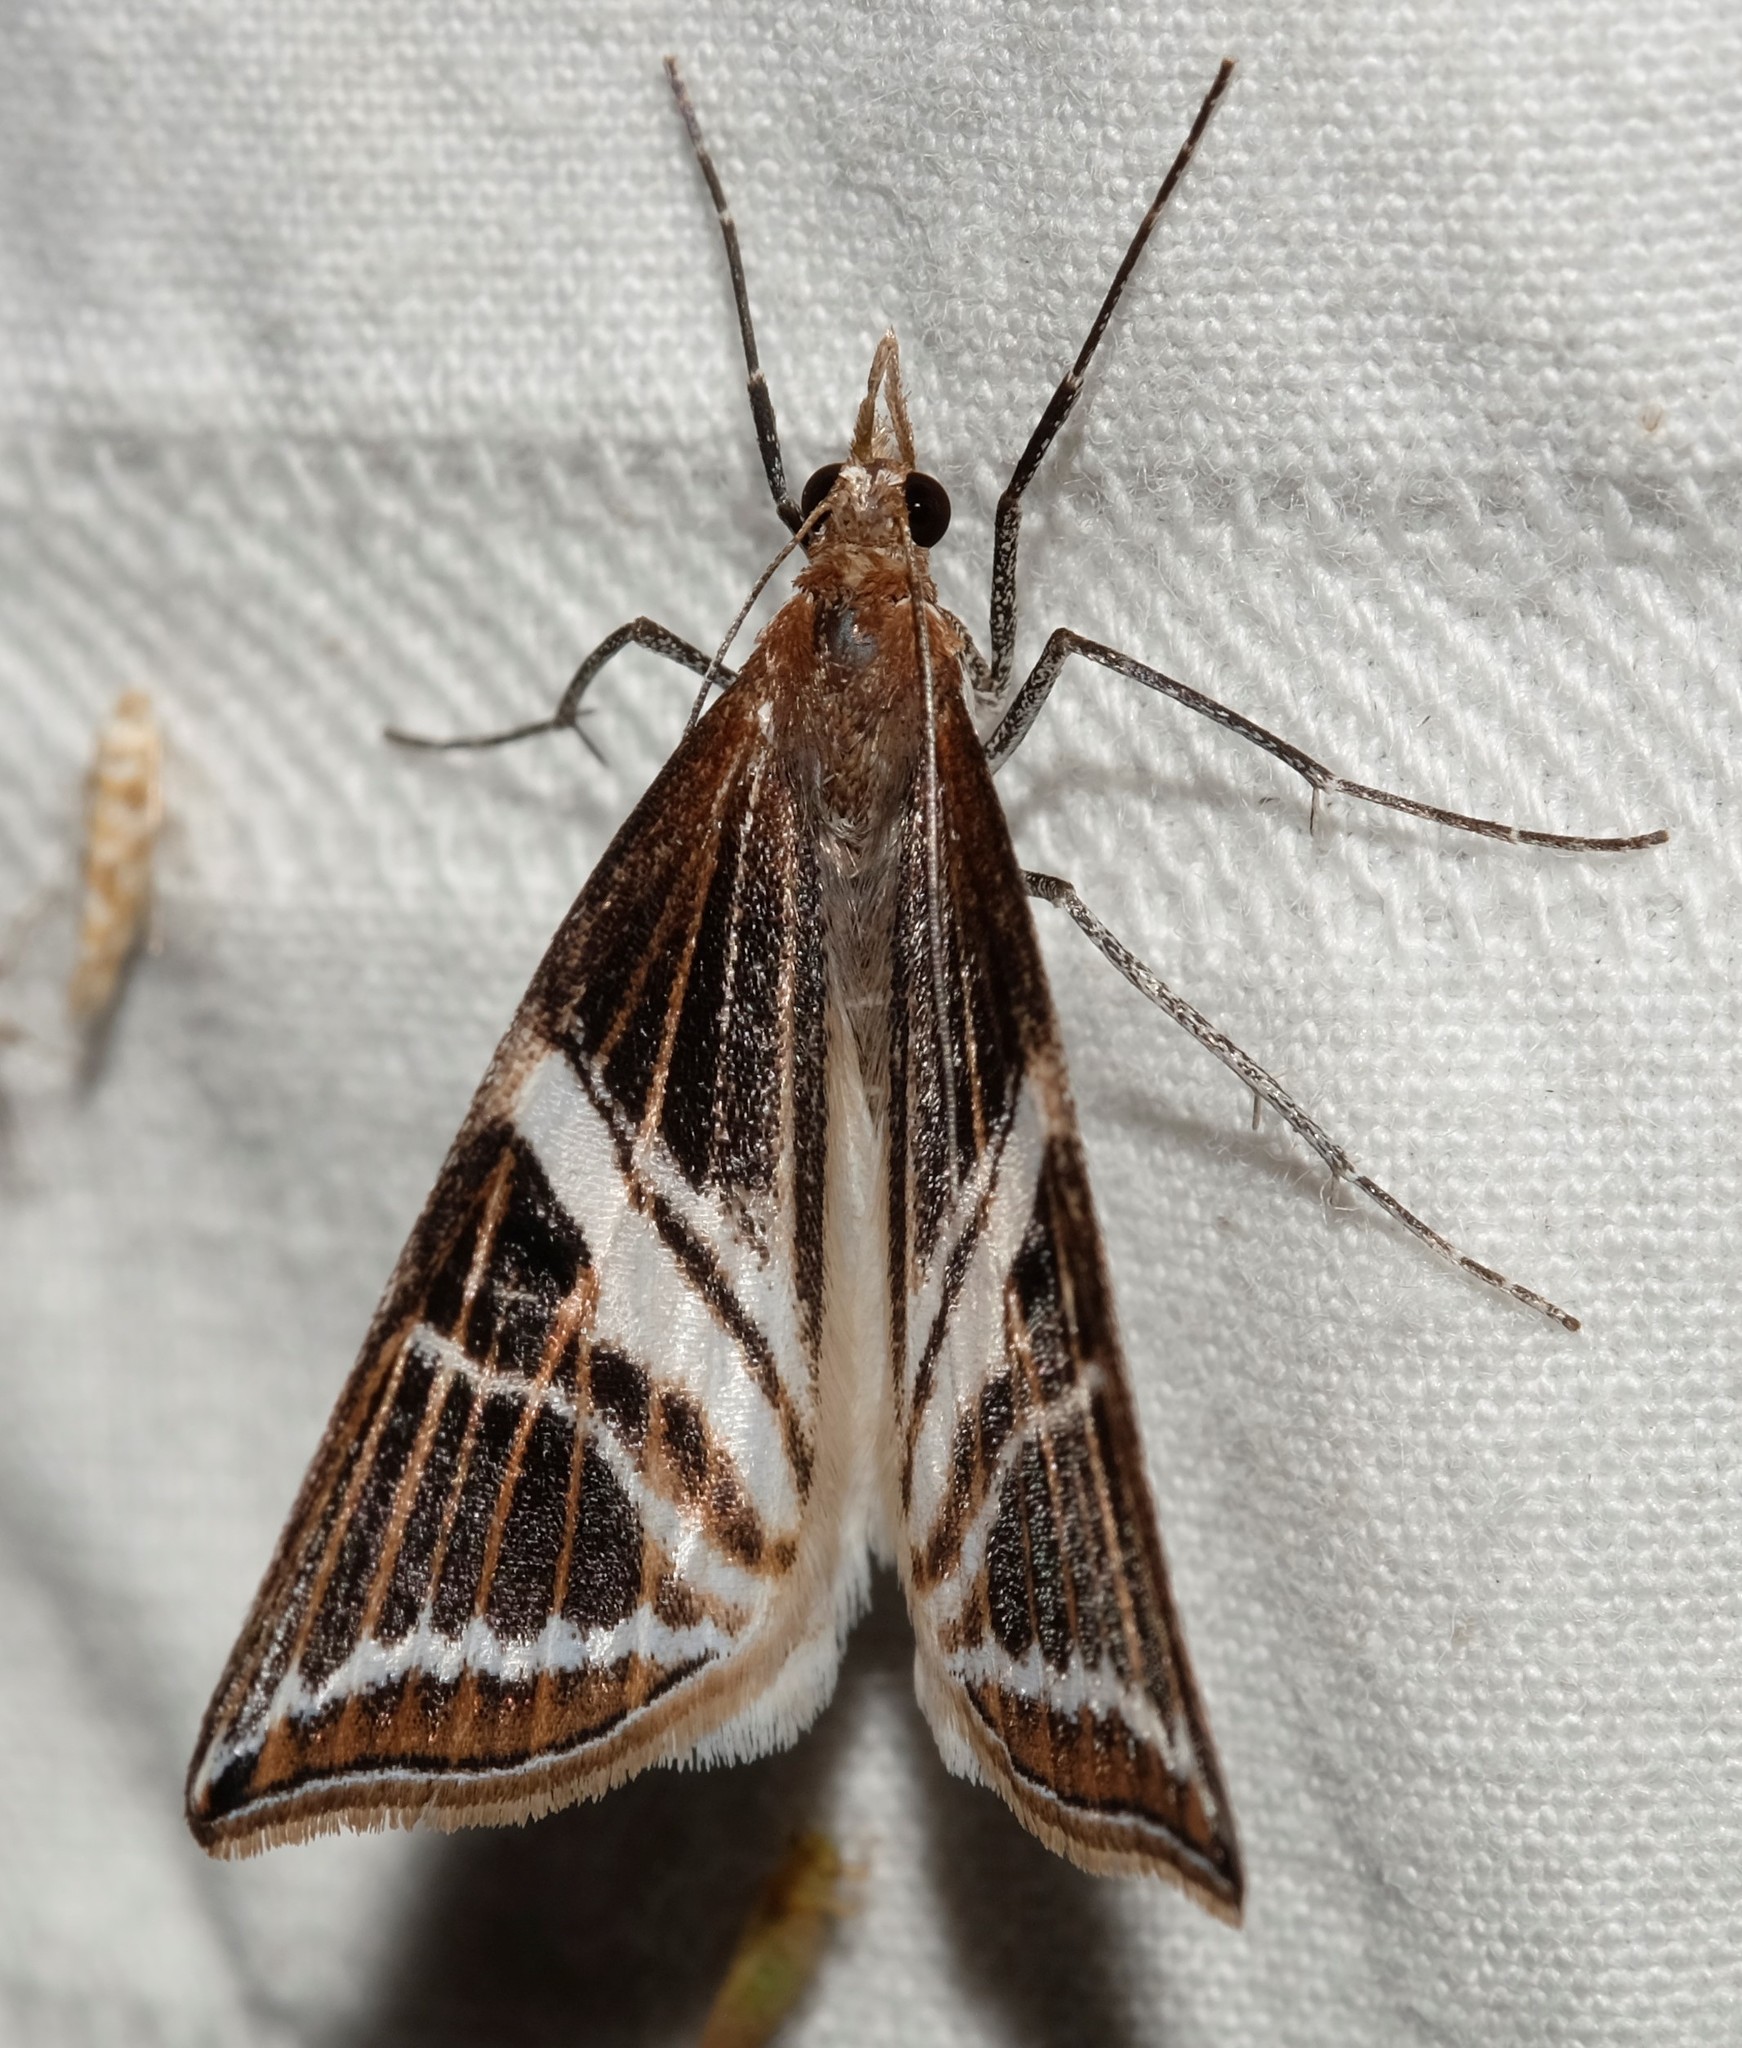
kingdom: Animalia
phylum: Arthropoda
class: Insecta
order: Lepidoptera
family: Geometridae
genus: Phrataria
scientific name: Phrataria transcissata
